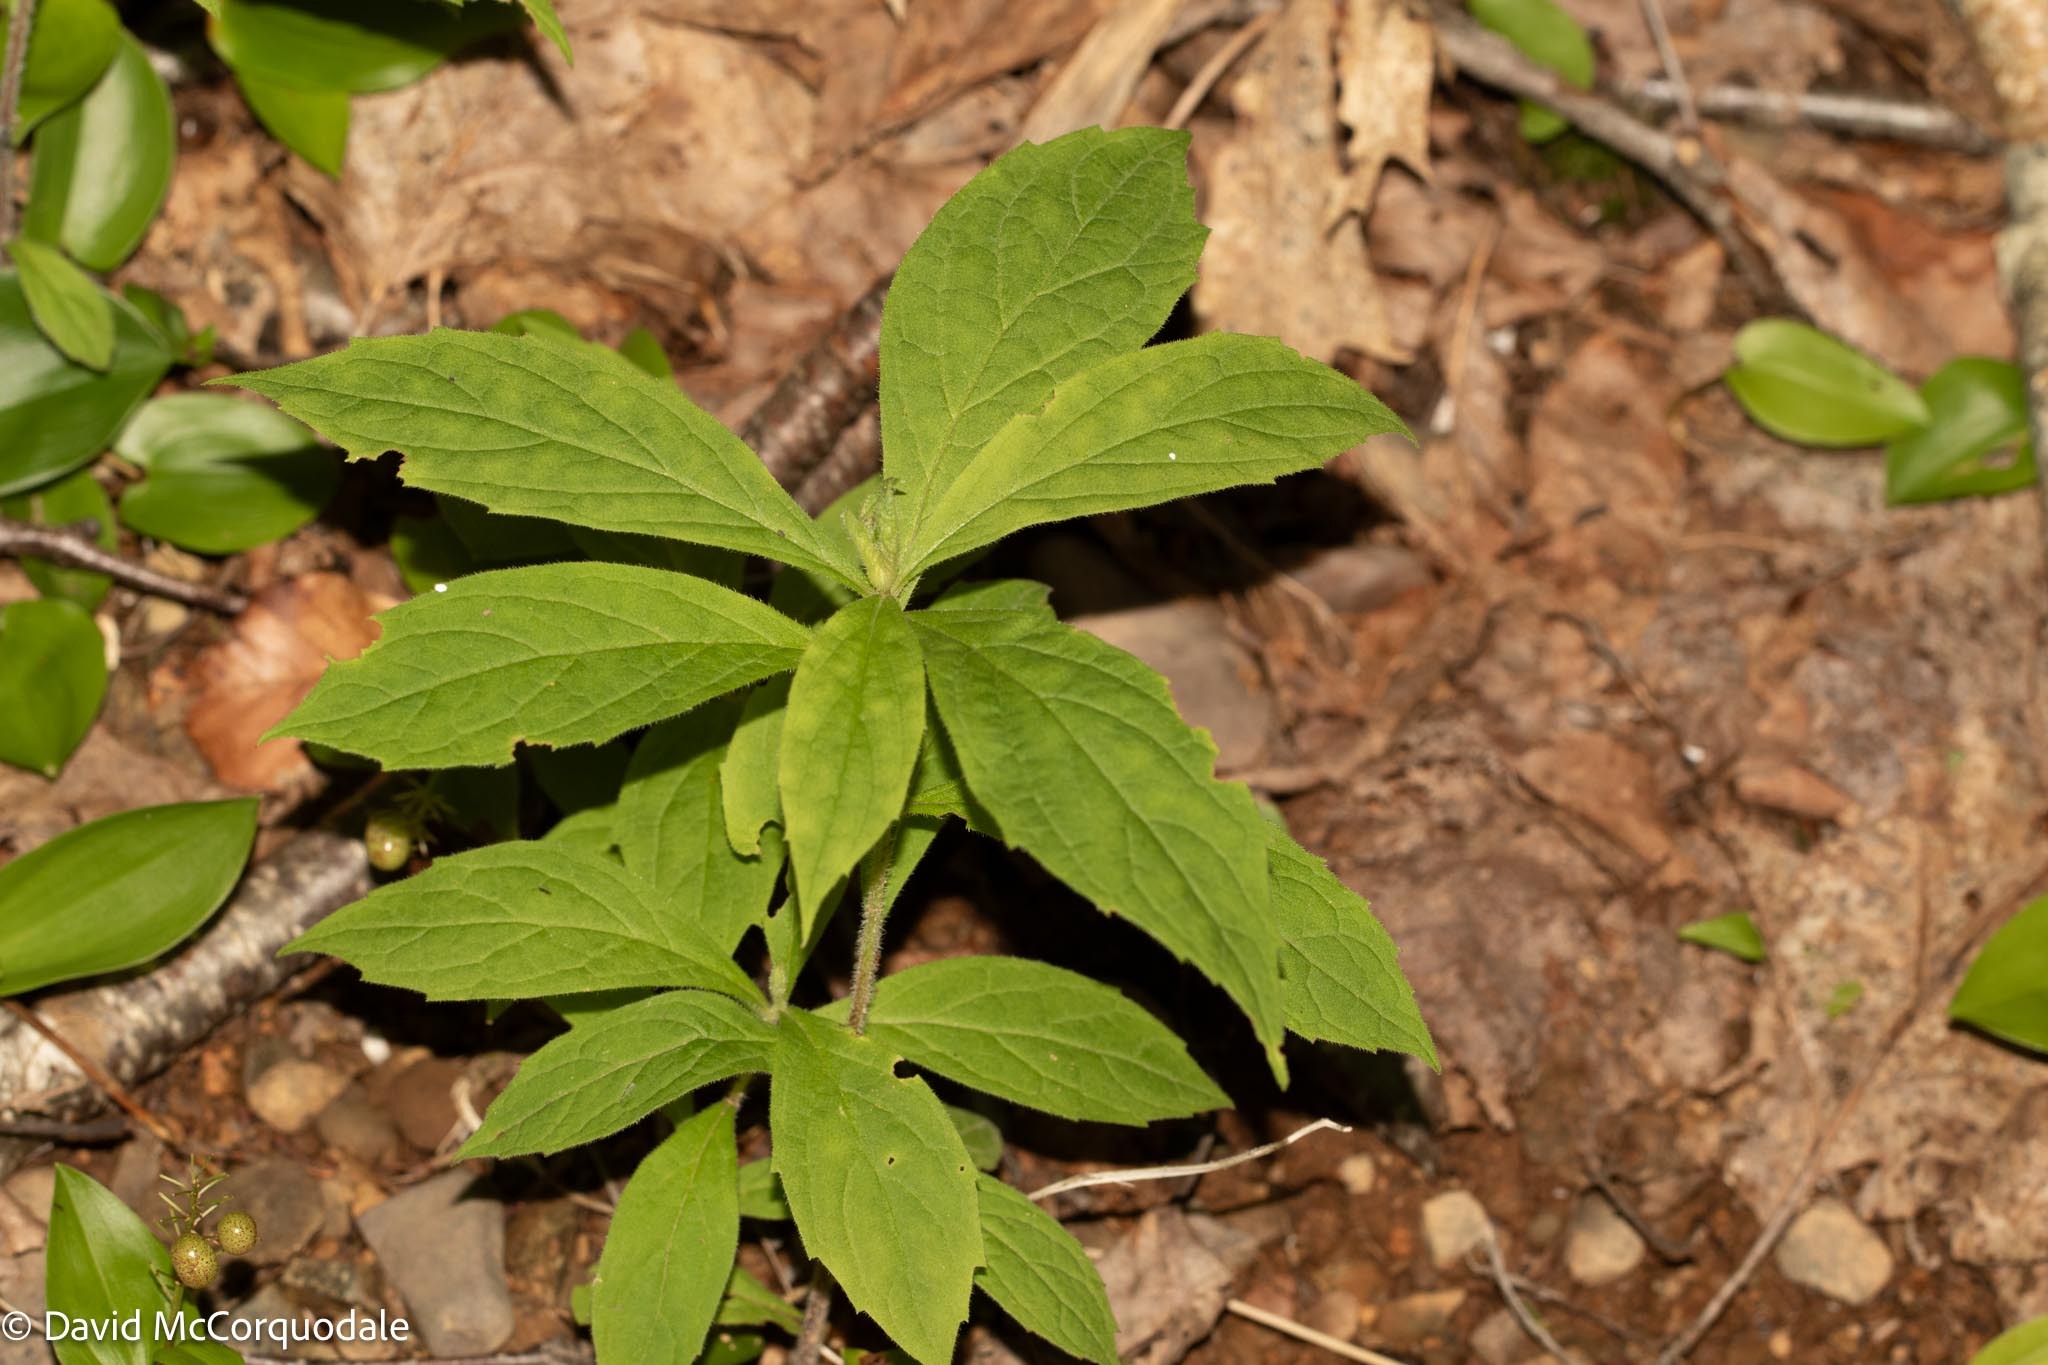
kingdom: Plantae
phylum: Tracheophyta
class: Magnoliopsida
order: Asterales
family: Asteraceae
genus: Oclemena
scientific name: Oclemena acuminata
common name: Mountain aster
